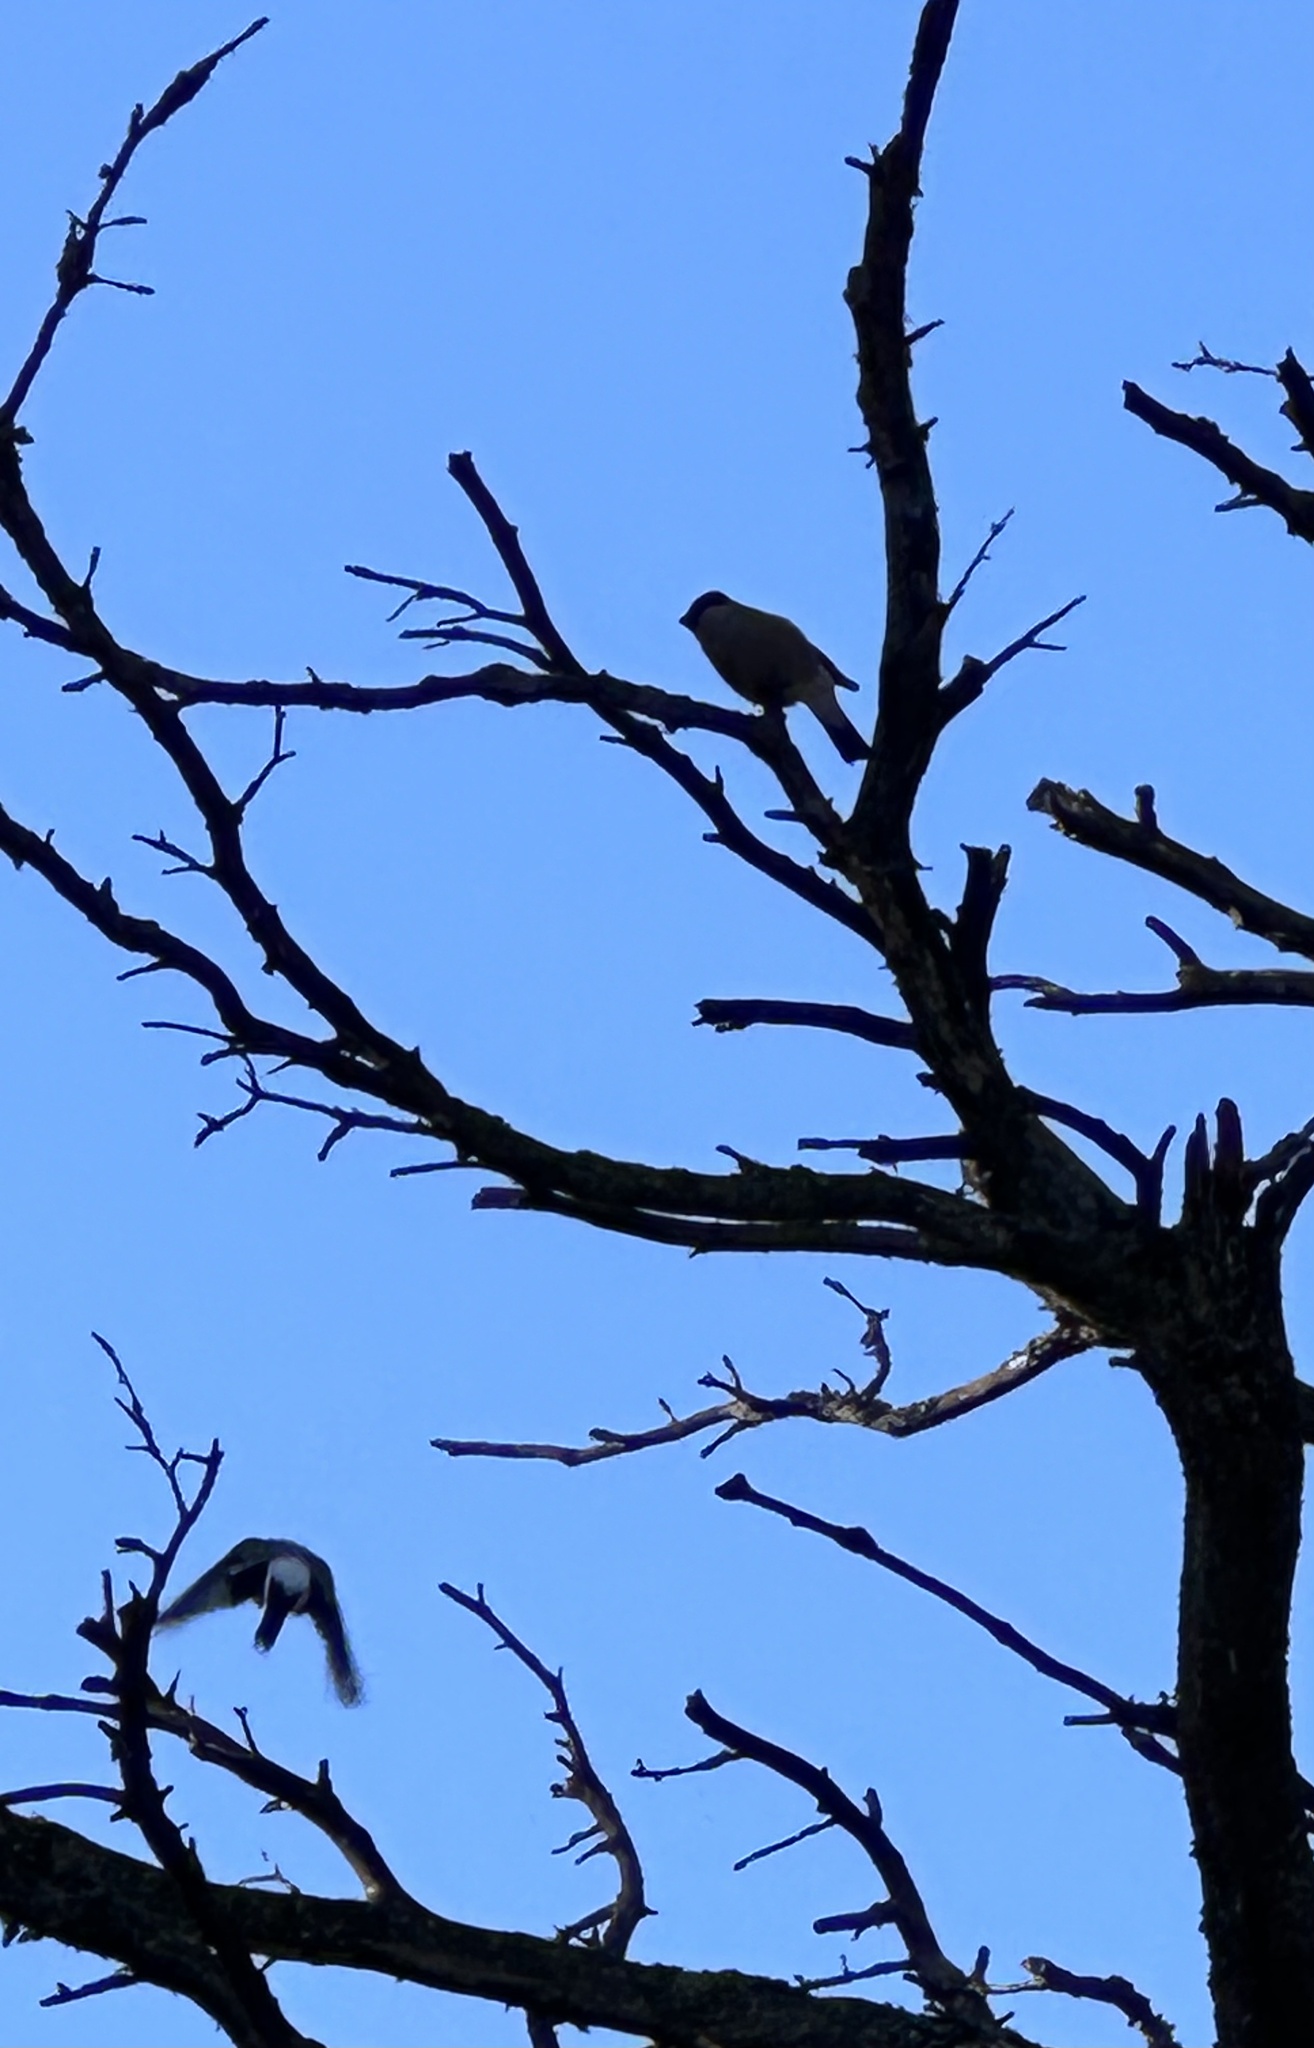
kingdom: Animalia
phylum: Chordata
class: Aves
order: Passeriformes
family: Fringillidae
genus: Pyrrhula
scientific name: Pyrrhula pyrrhula
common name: Eurasian bullfinch
